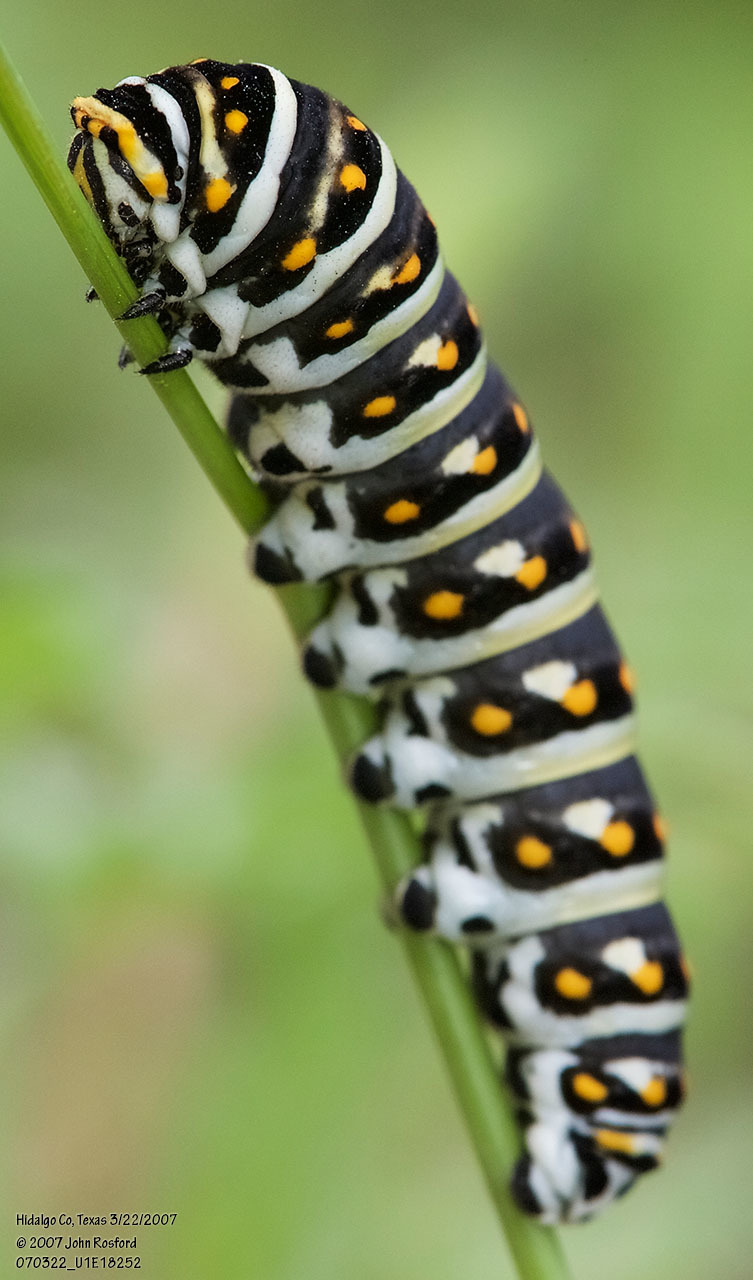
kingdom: Animalia
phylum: Arthropoda
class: Insecta
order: Lepidoptera
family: Papilionidae
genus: Papilio
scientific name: Papilio polyxenes
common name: Black swallowtail
